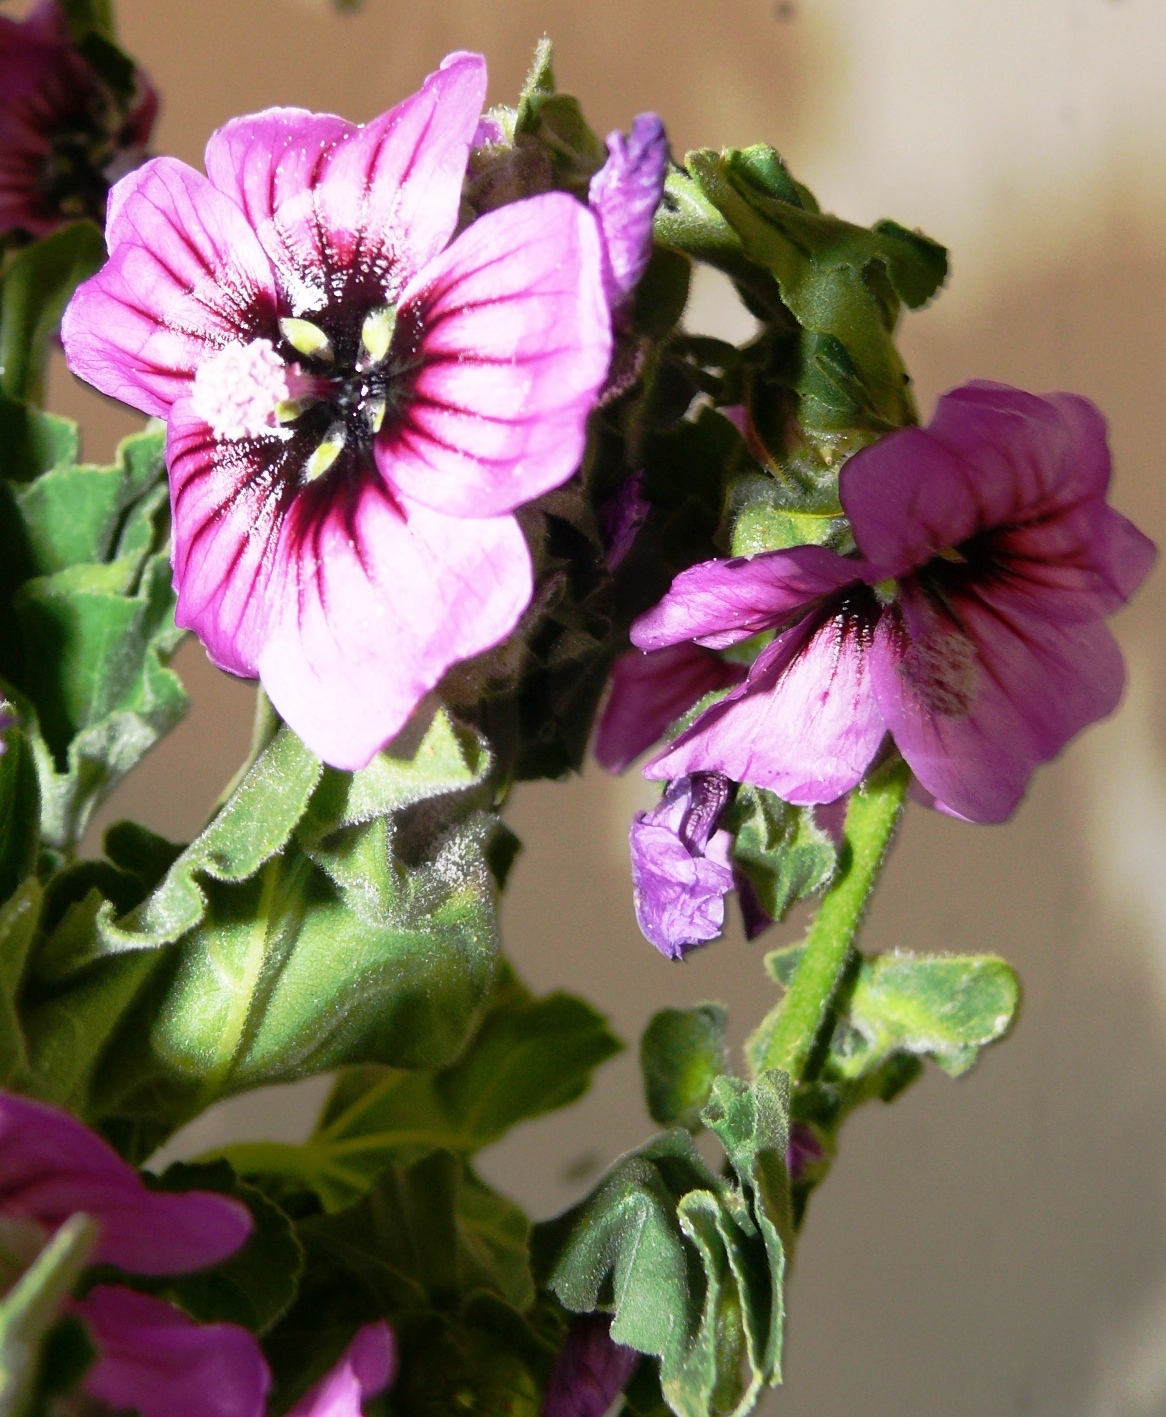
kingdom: Plantae
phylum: Tracheophyta
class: Magnoliopsida
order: Malvales
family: Malvaceae
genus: Malva
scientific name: Malva arborea
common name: Tree mallow
